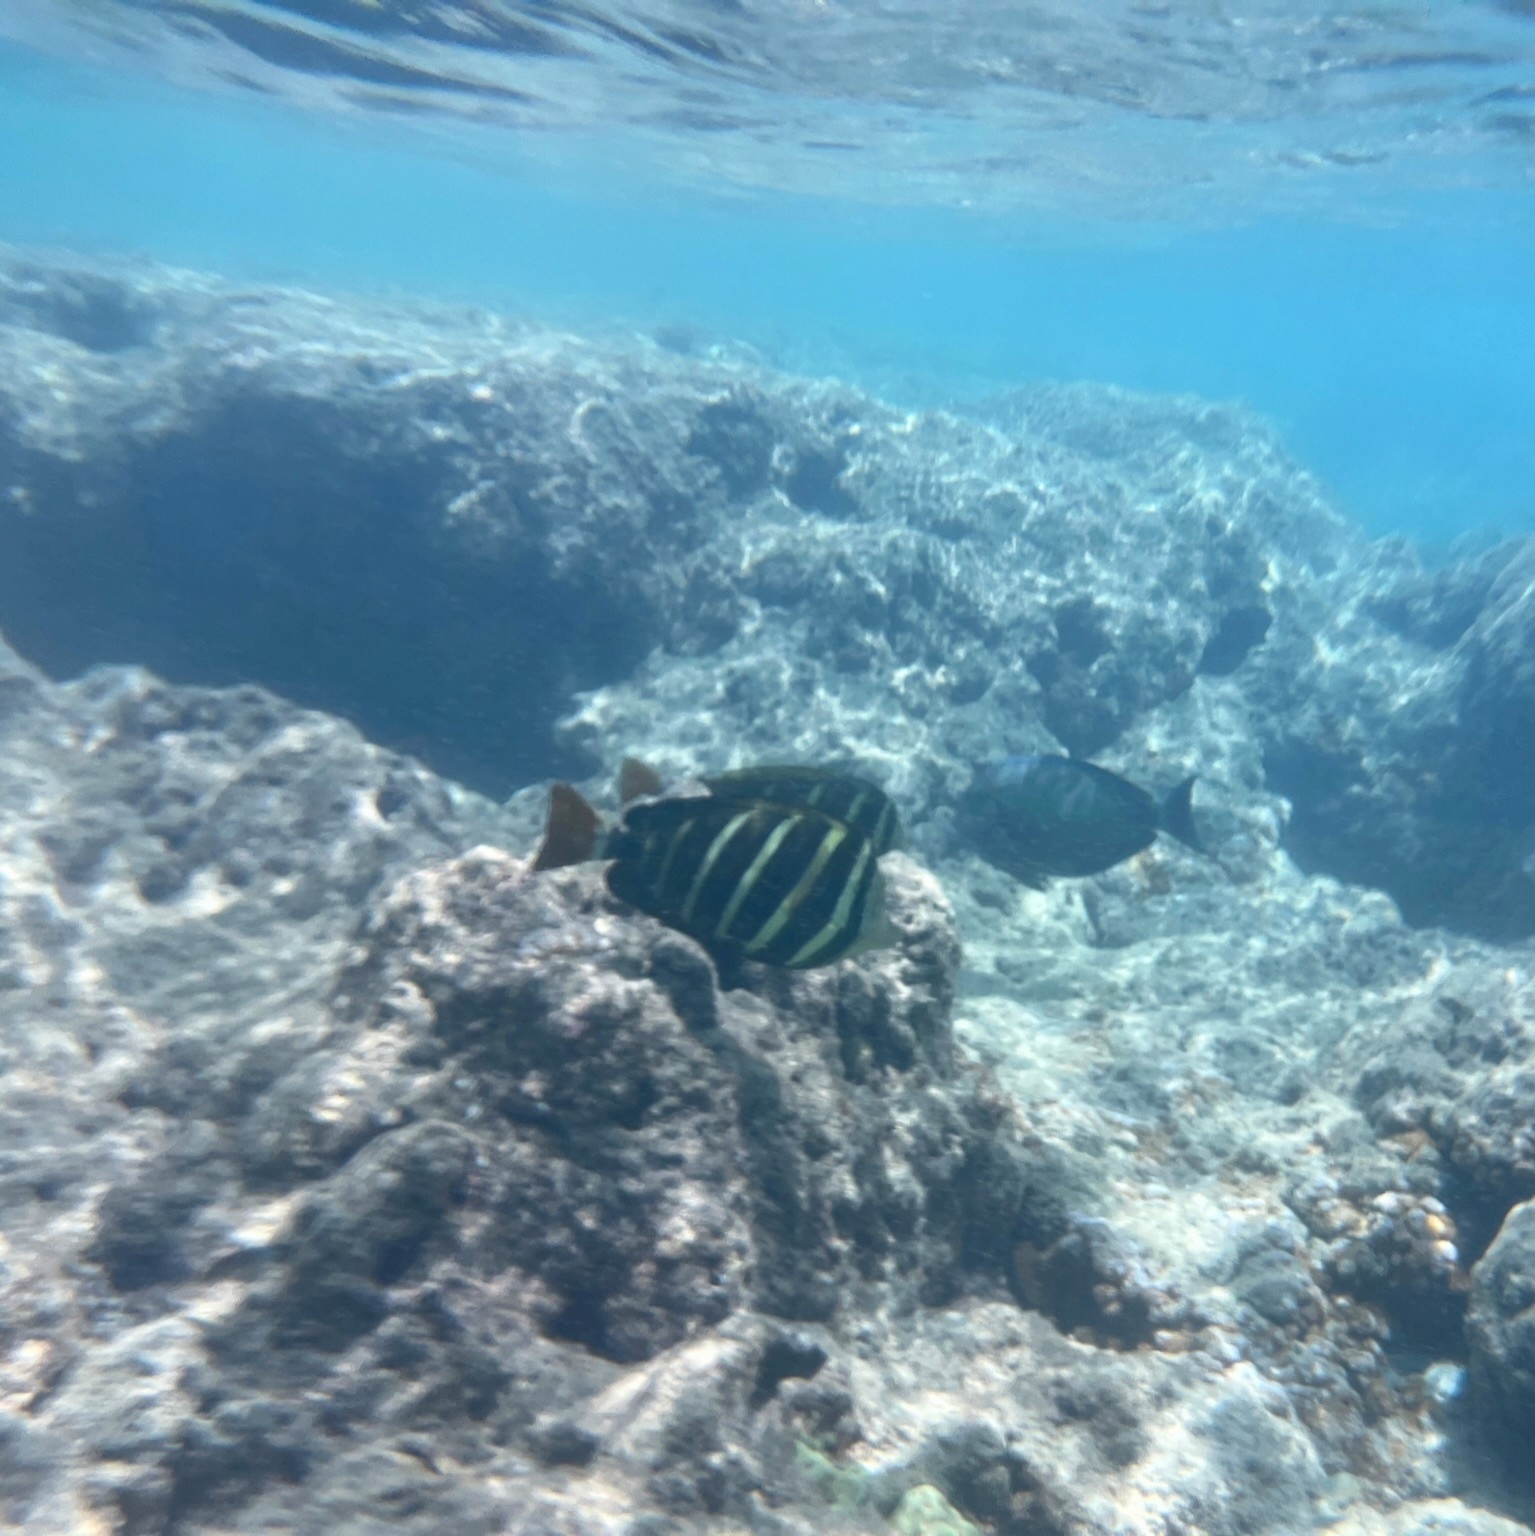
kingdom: Animalia
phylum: Chordata
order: Perciformes
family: Acanthuridae
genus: Zebrasoma
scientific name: Zebrasoma veliferum
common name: Sailfin surgeonfish
